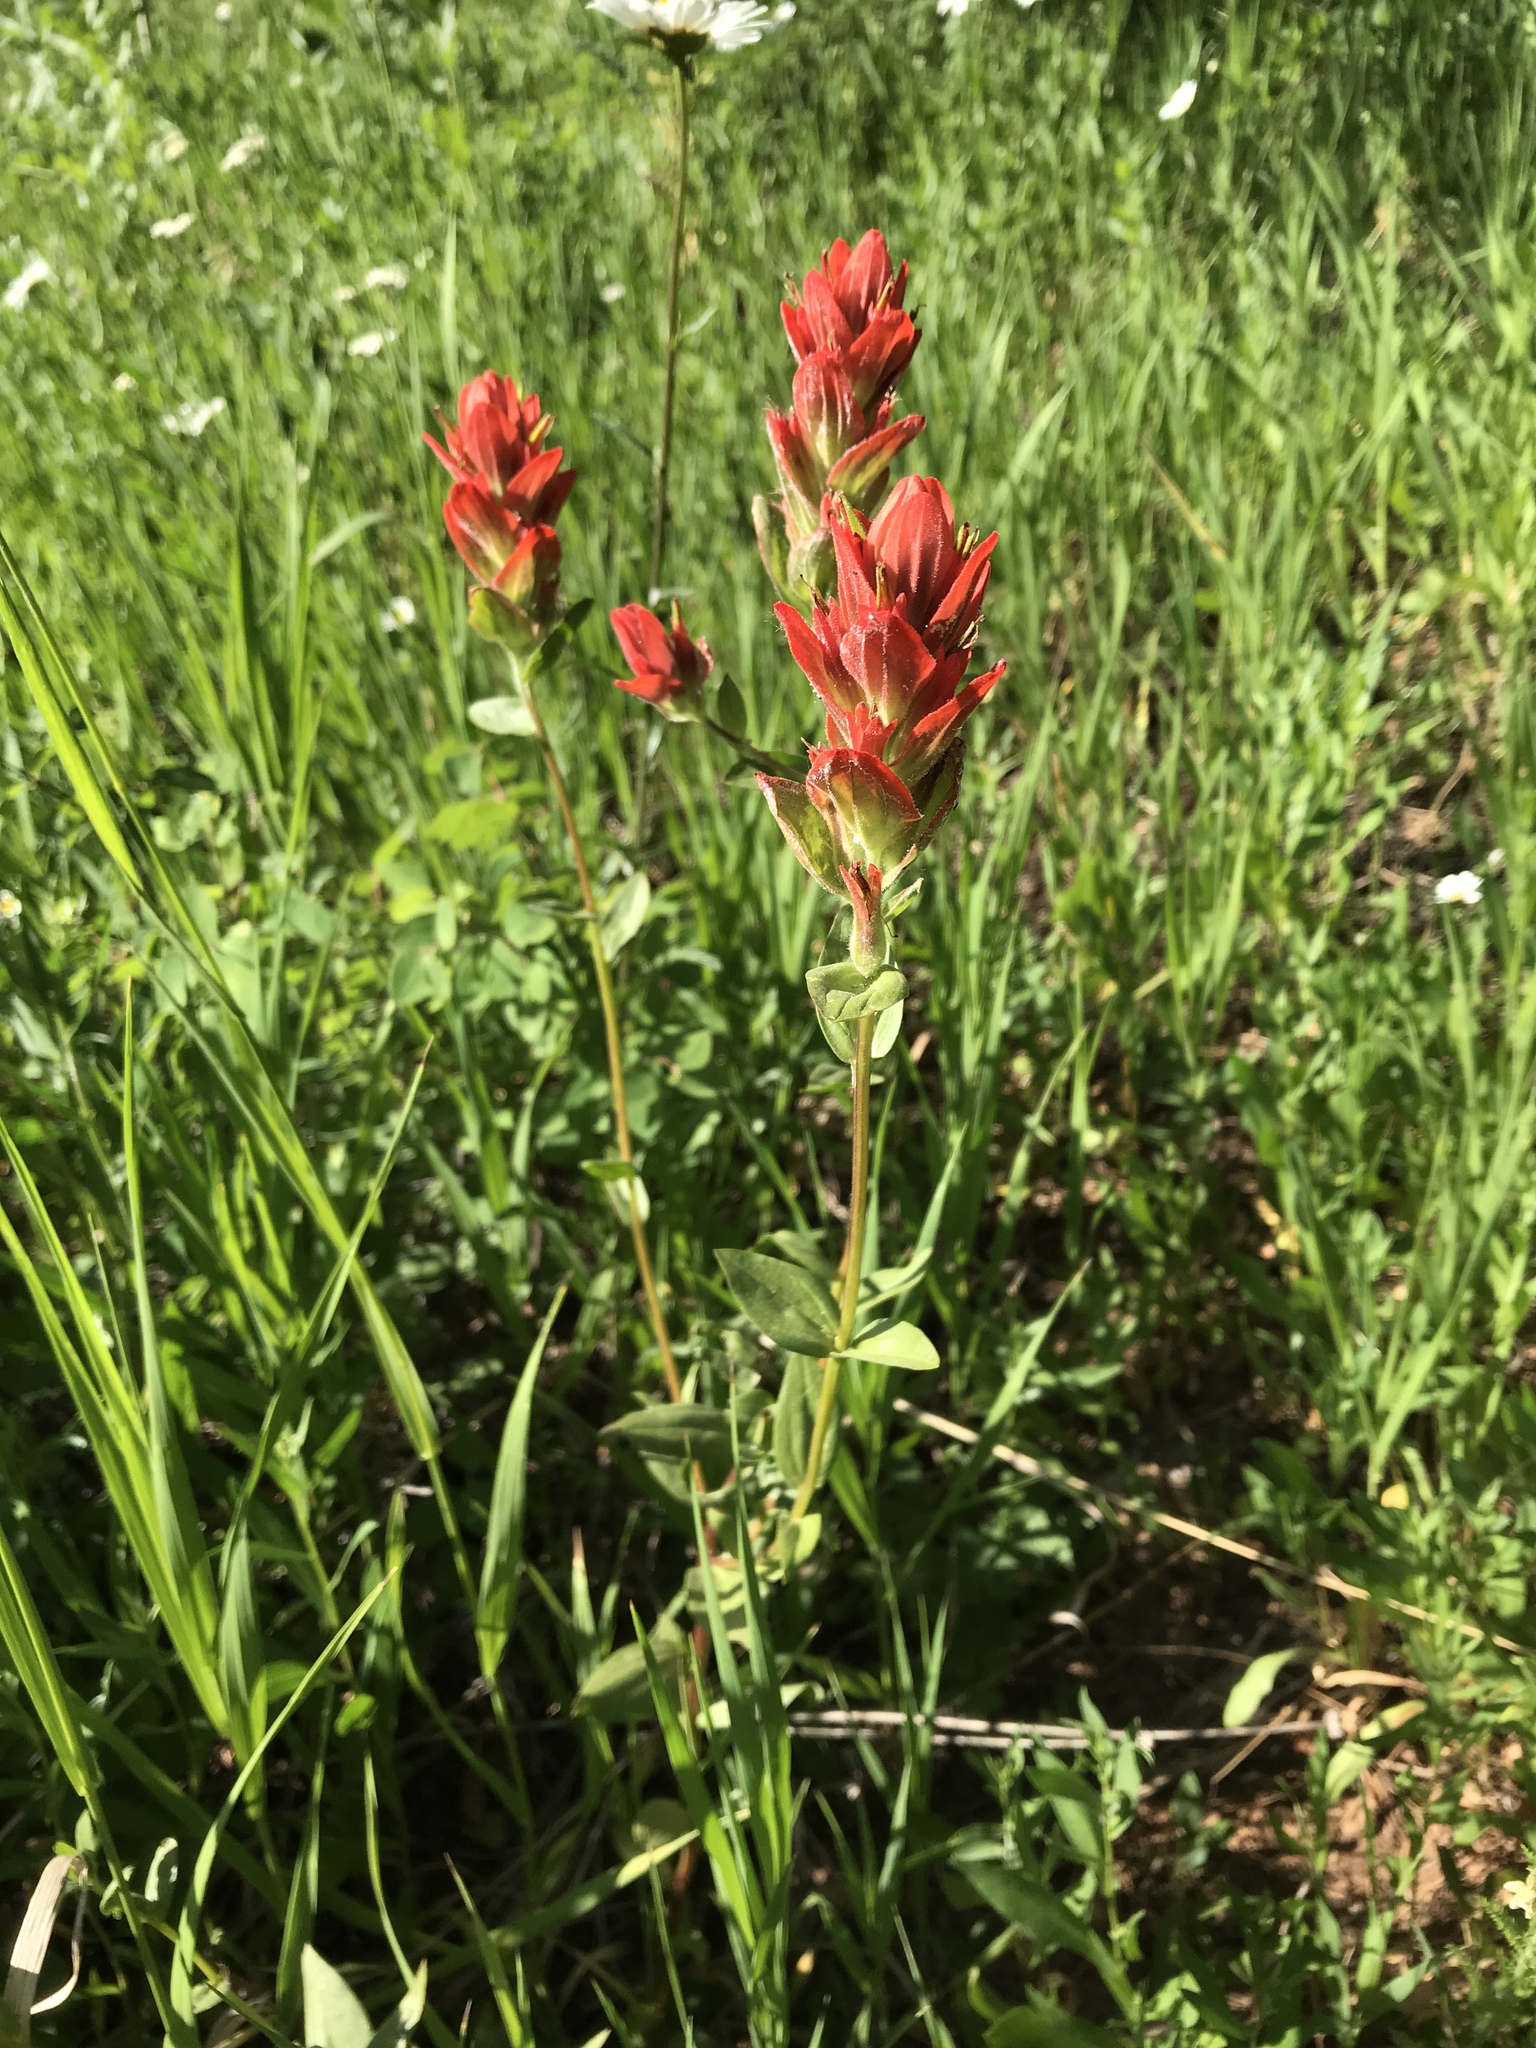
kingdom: Plantae
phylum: Tracheophyta
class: Magnoliopsida
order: Lamiales
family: Orobanchaceae
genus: Castilleja
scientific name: Castilleja rhexifolia
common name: Rocky mountain paintbrush
